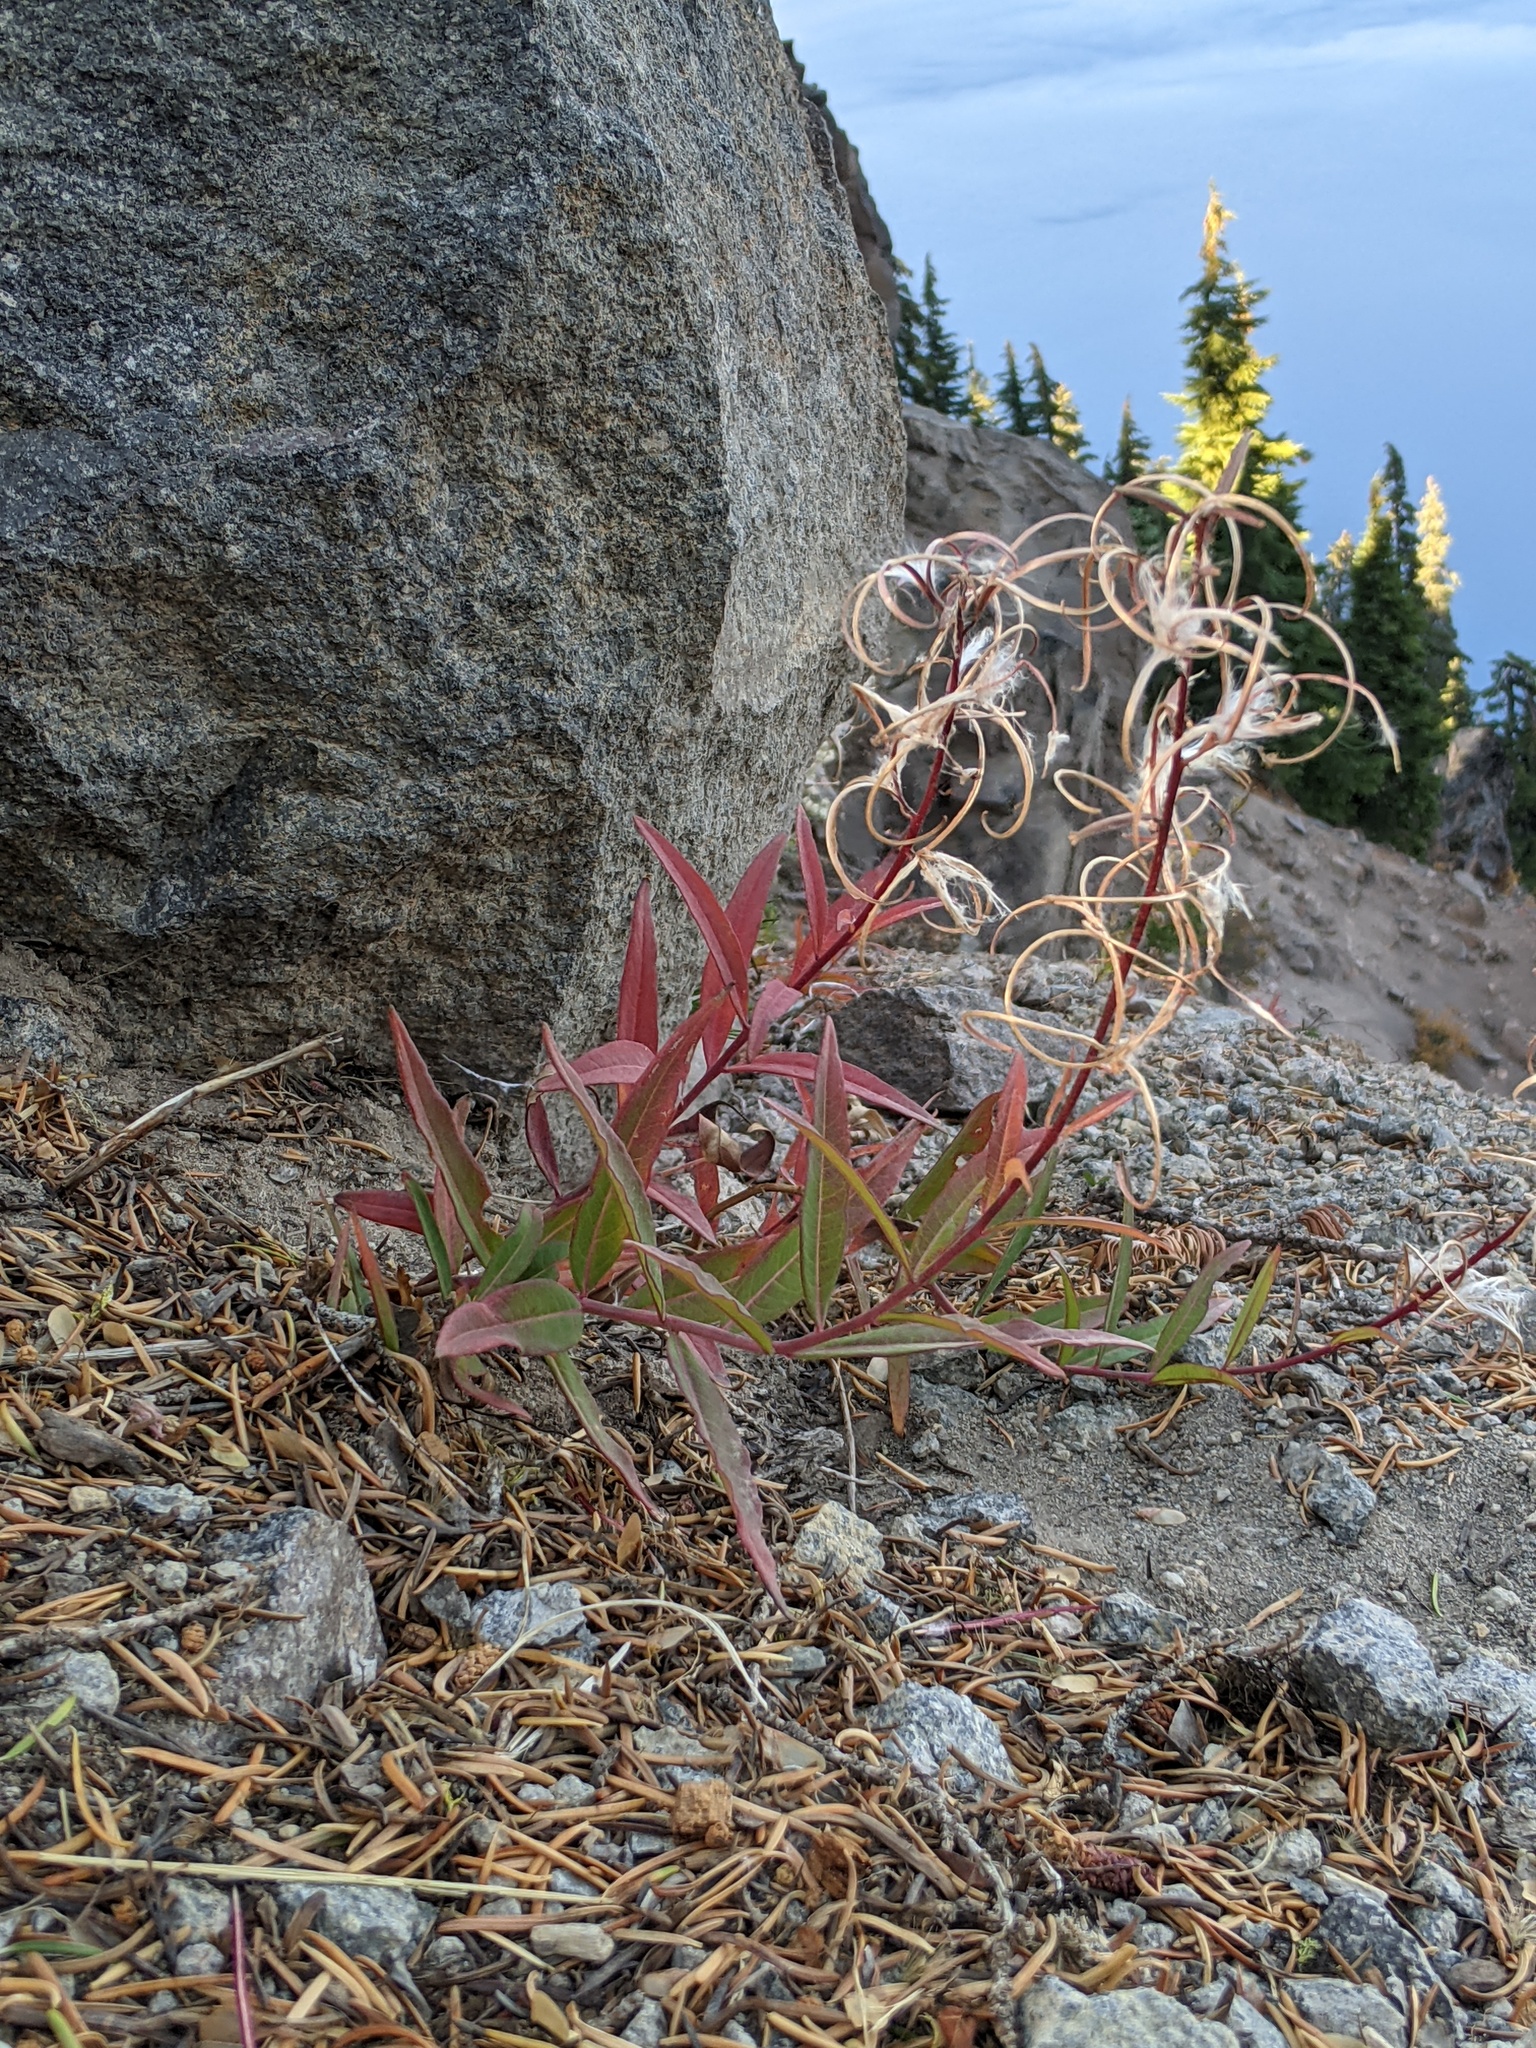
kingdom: Plantae
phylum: Tracheophyta
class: Magnoliopsida
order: Myrtales
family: Onagraceae
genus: Chamaenerion
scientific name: Chamaenerion angustifolium
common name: Fireweed
